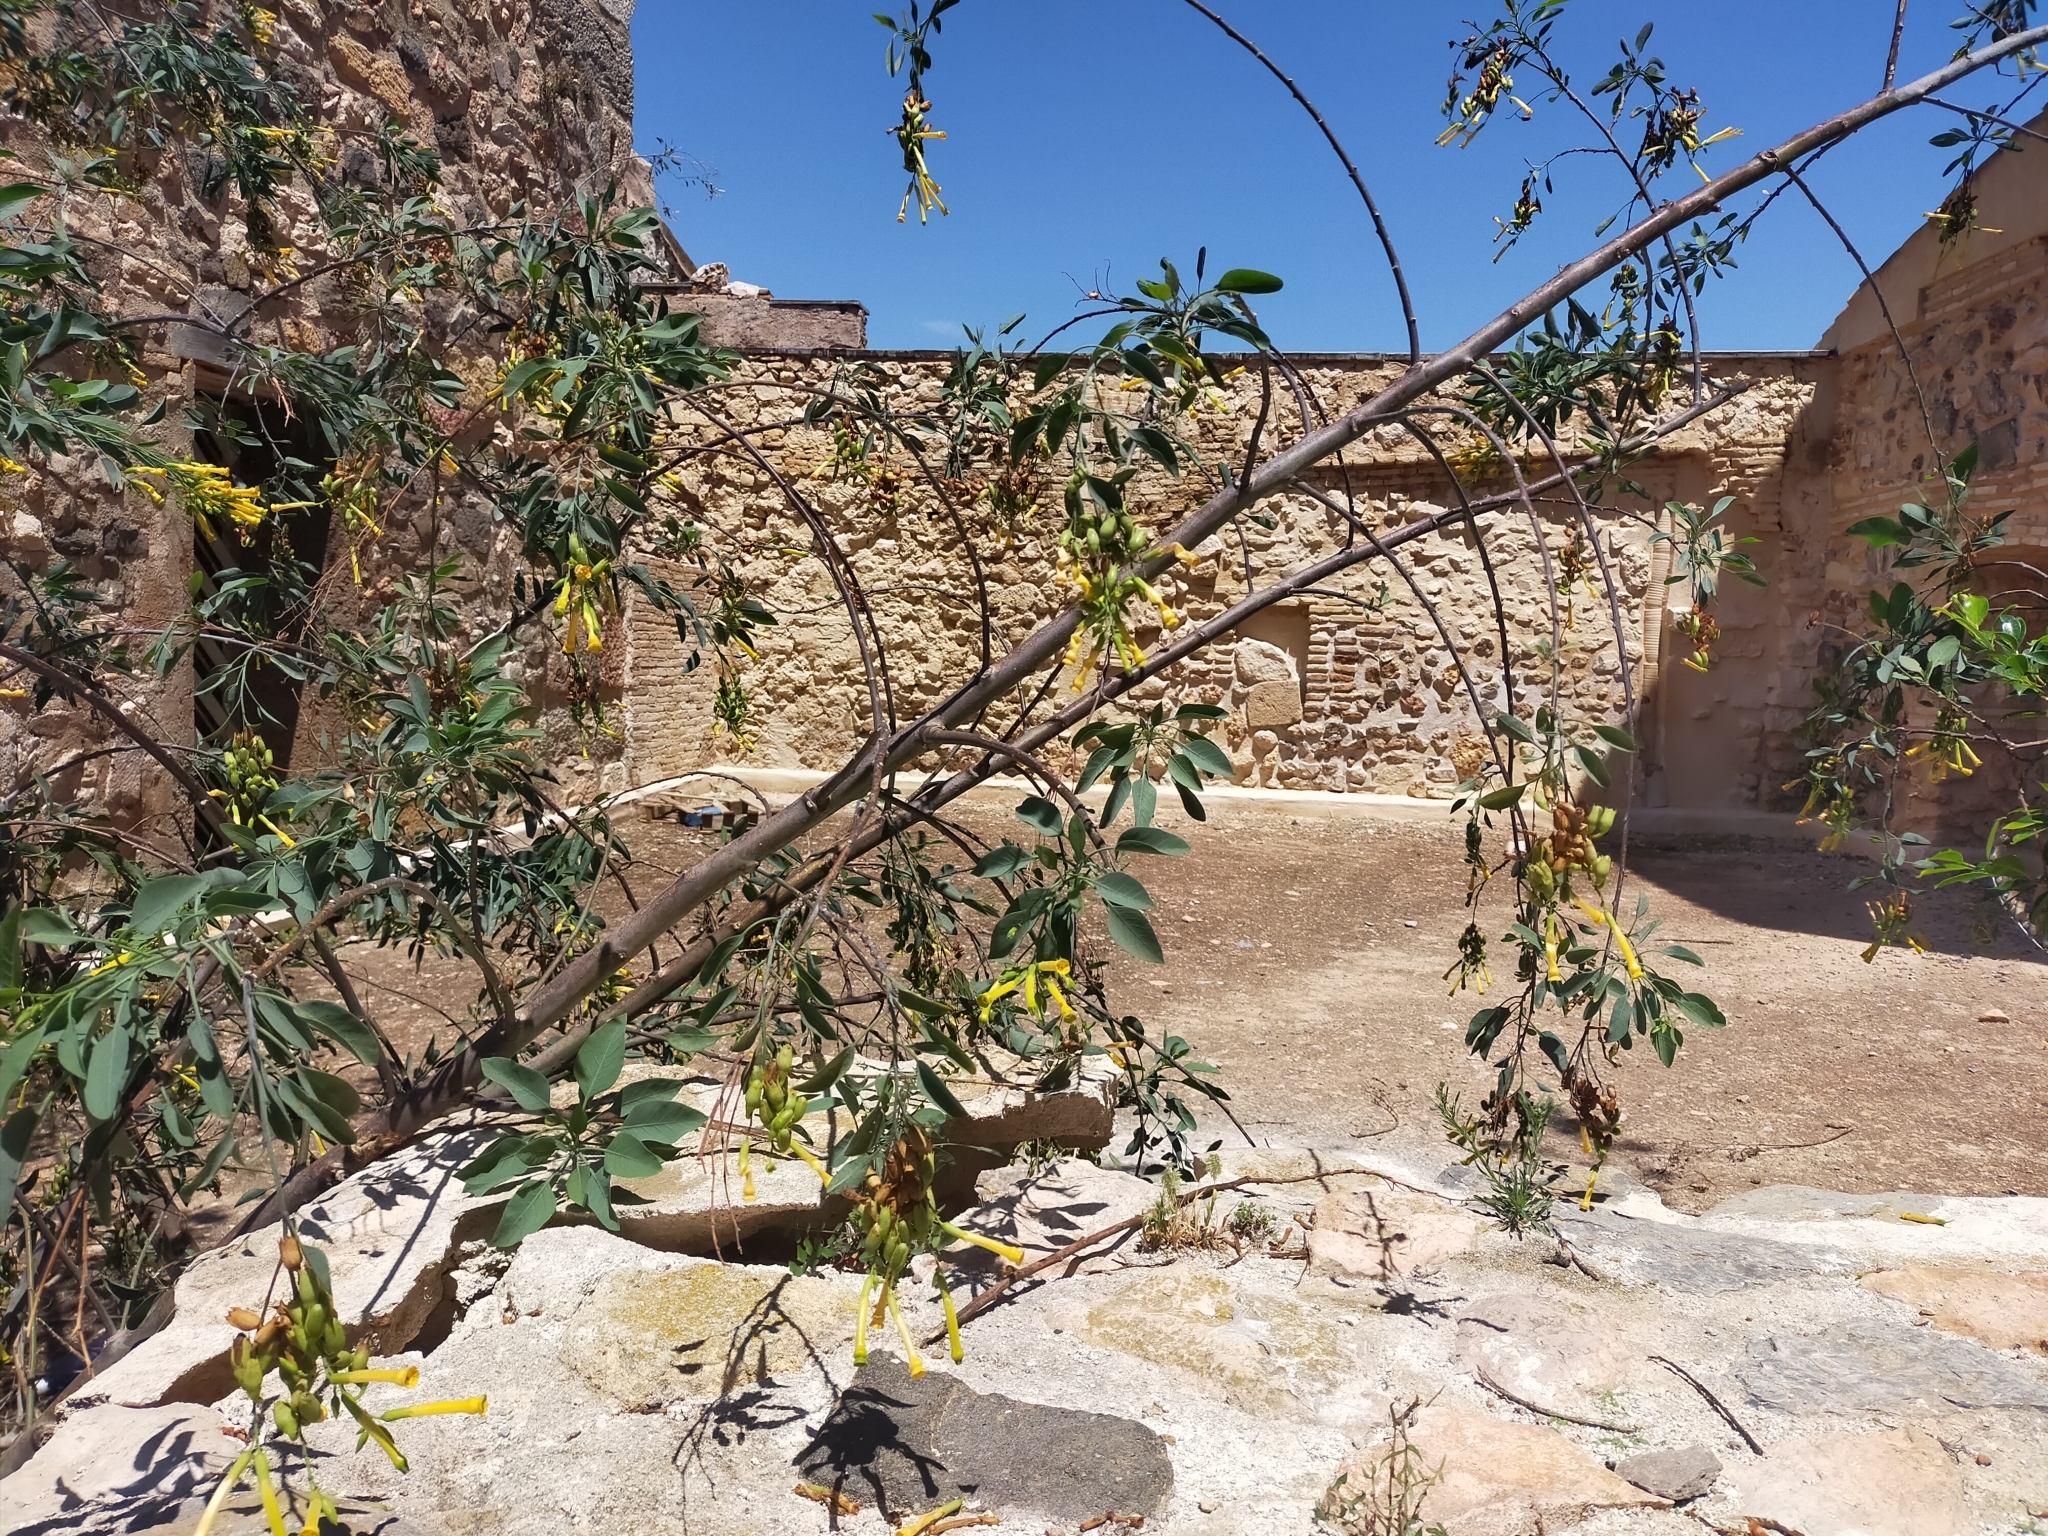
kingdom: Plantae
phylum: Tracheophyta
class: Magnoliopsida
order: Solanales
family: Solanaceae
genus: Nicotiana
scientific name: Nicotiana glauca
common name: Tree tobacco
